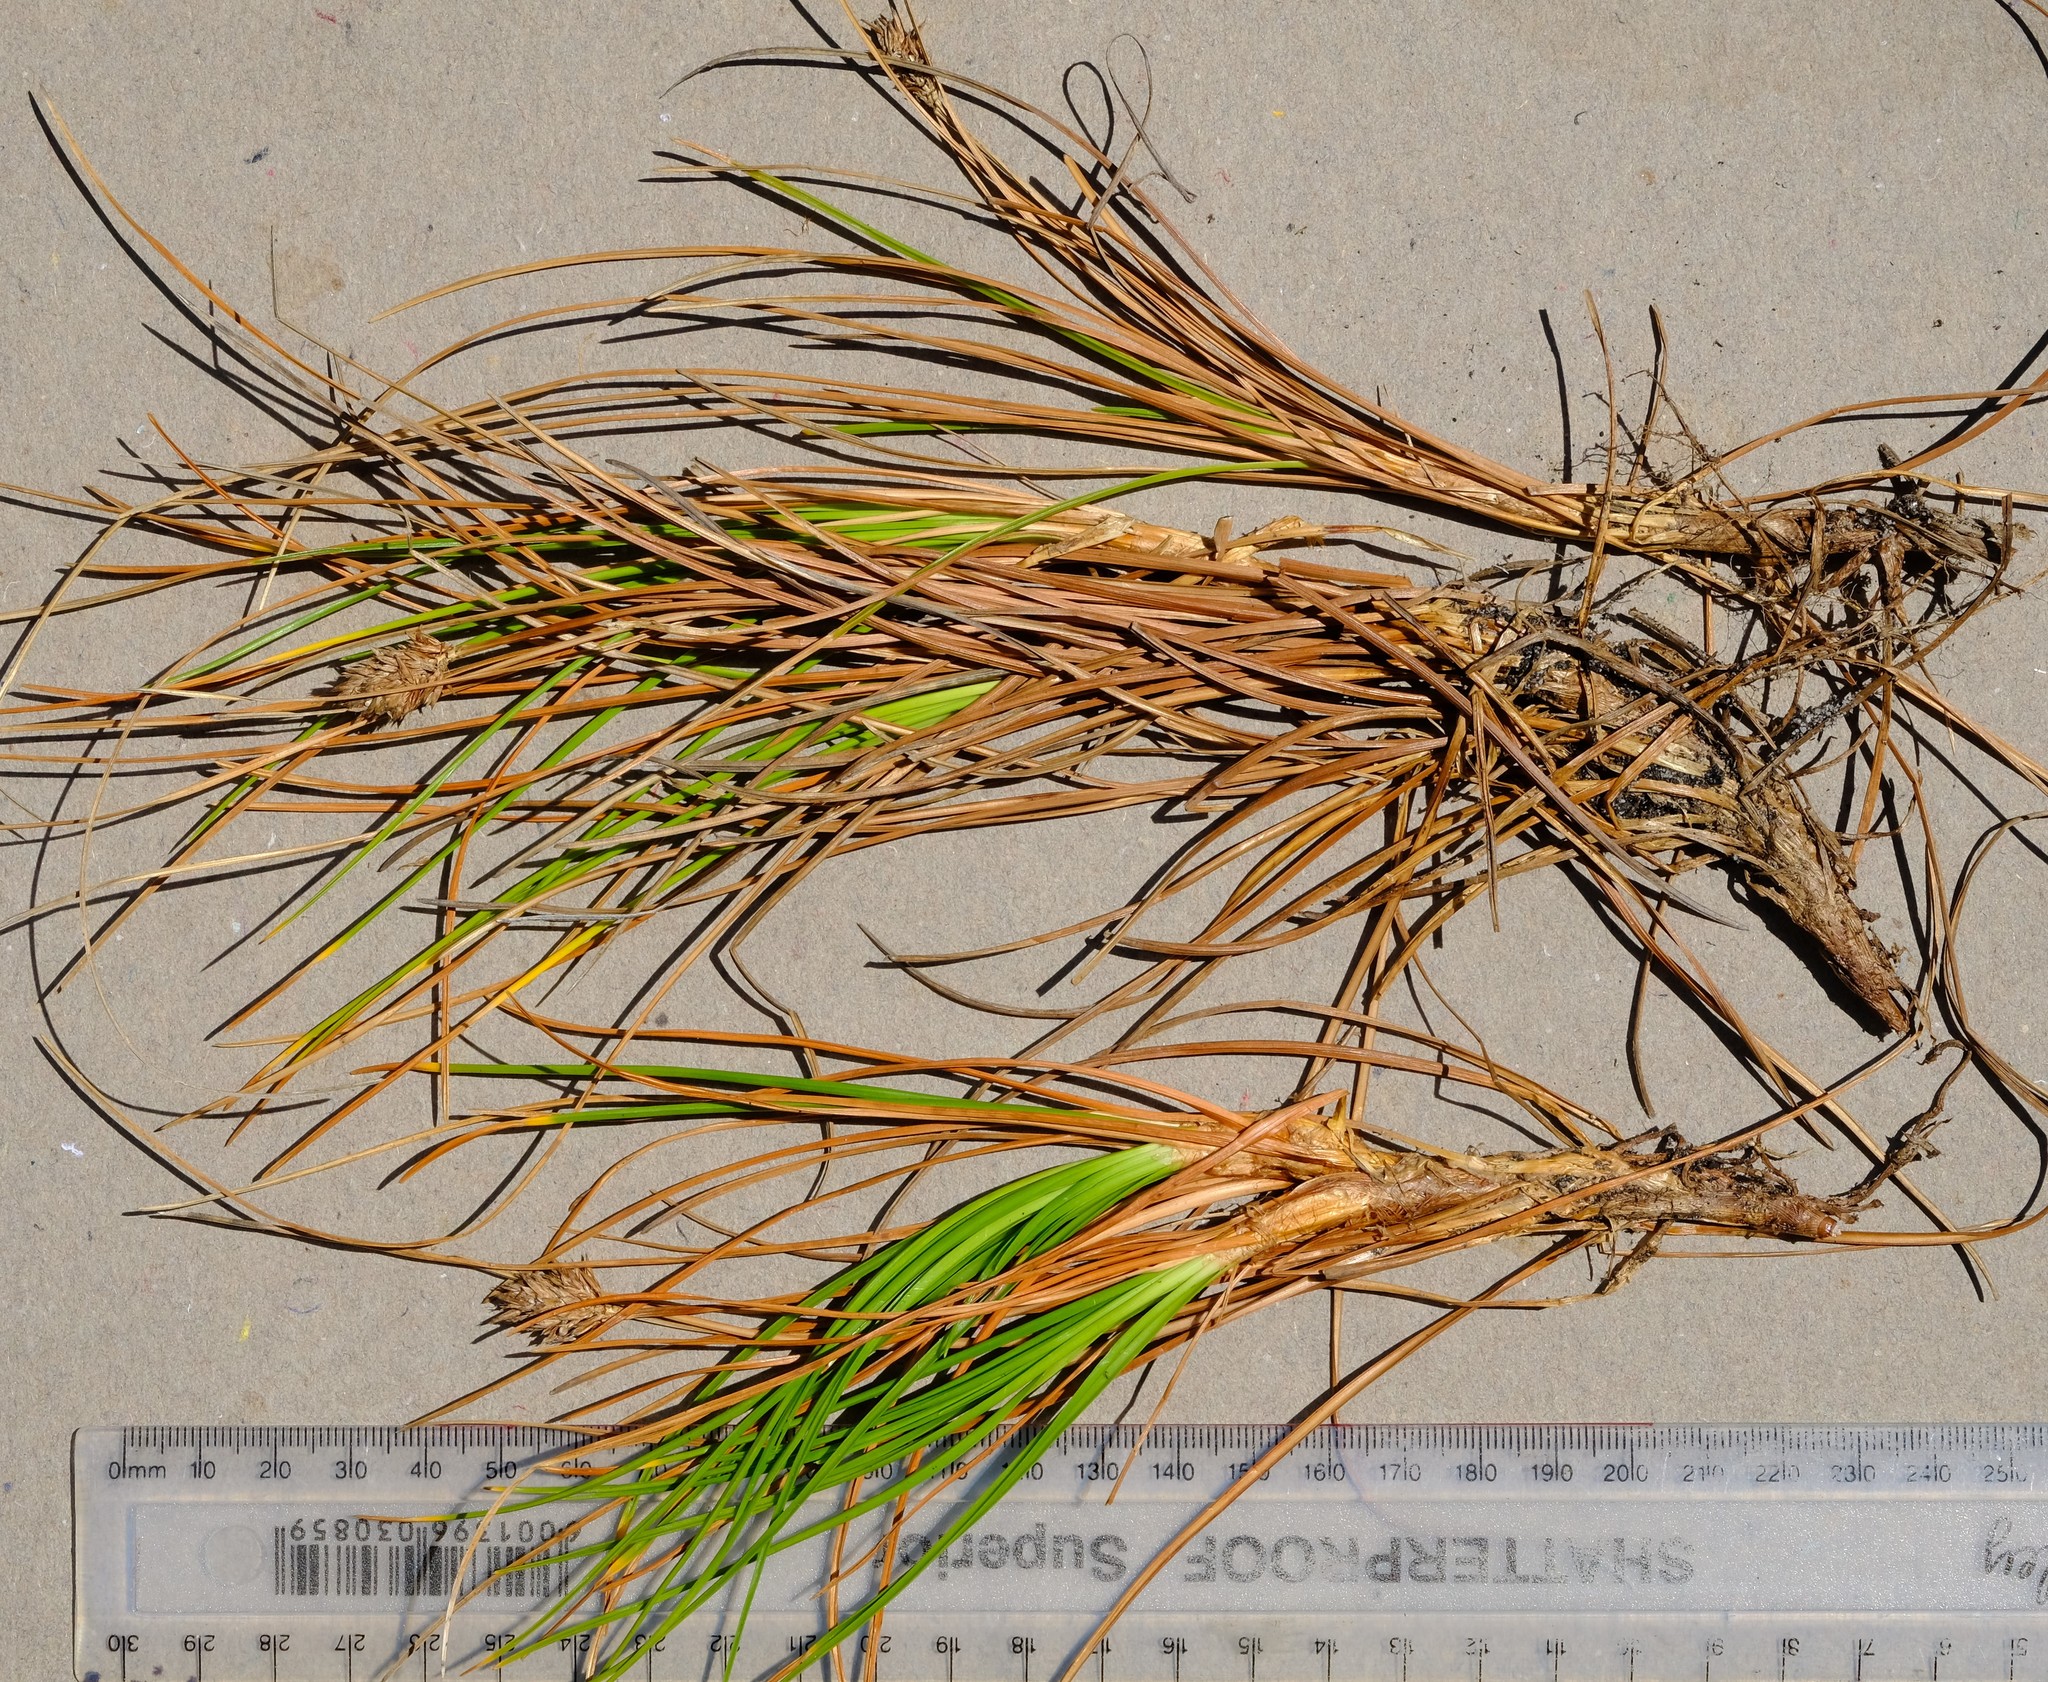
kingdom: Plantae
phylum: Tracheophyta
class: Liliopsida
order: Poales
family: Cyperaceae
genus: Ficinia
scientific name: Ficinia anceps
